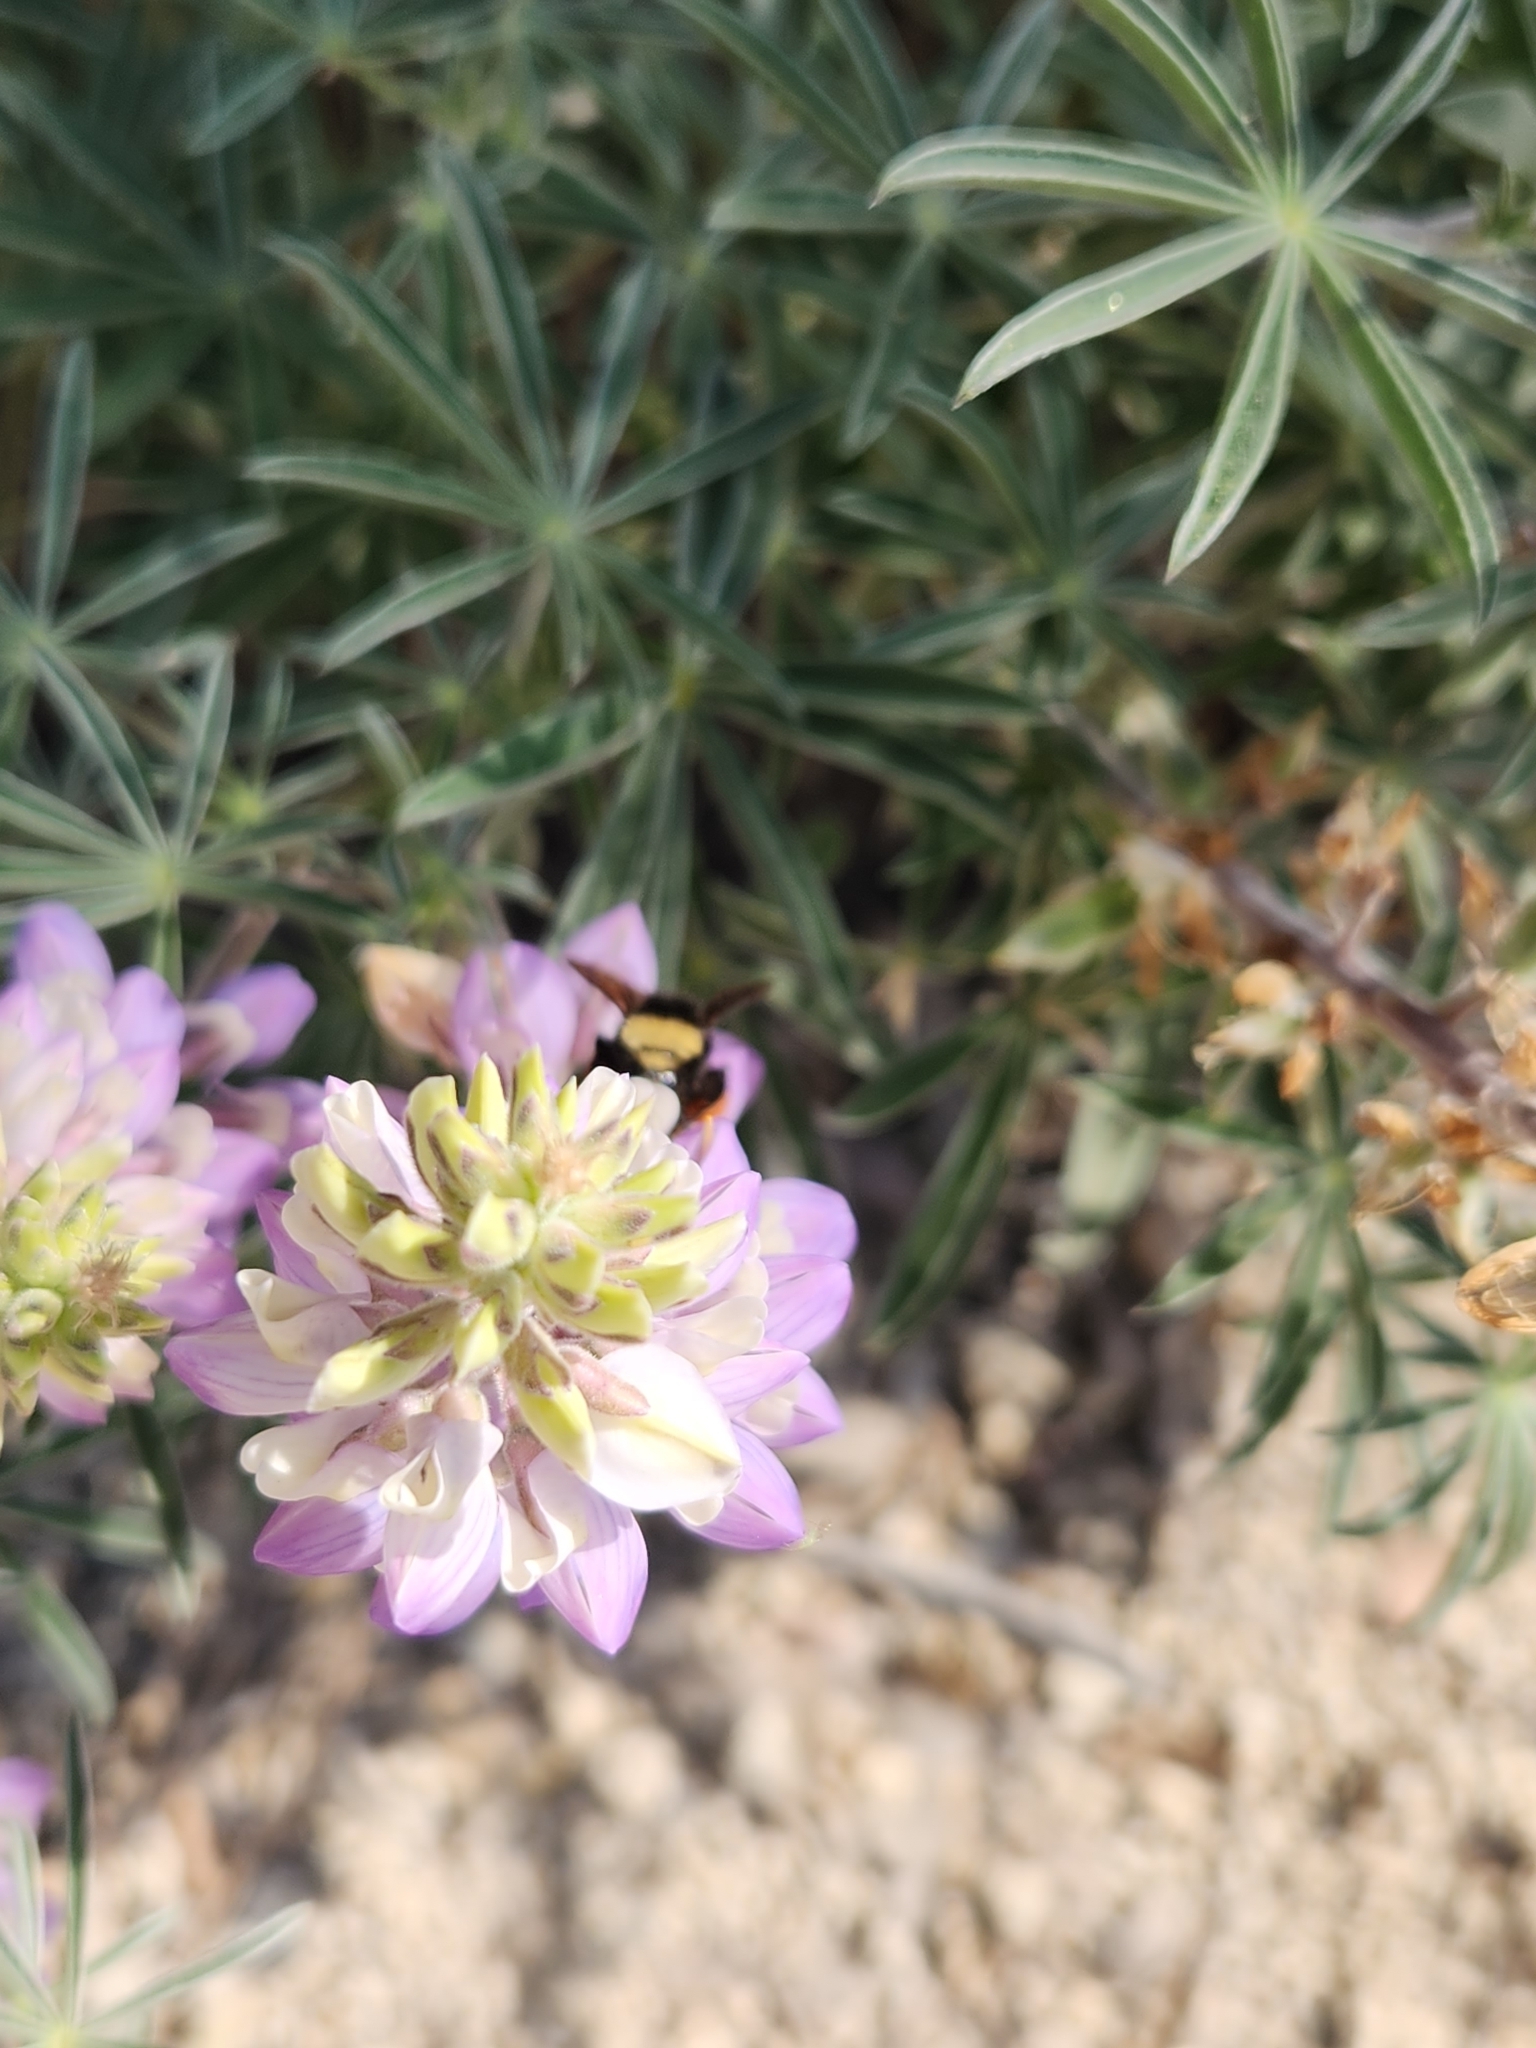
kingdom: Animalia
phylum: Arthropoda
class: Insecta
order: Hymenoptera
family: Apidae
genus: Bombus
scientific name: Bombus vosnesenskii
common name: Vosnesensky bumble bee
